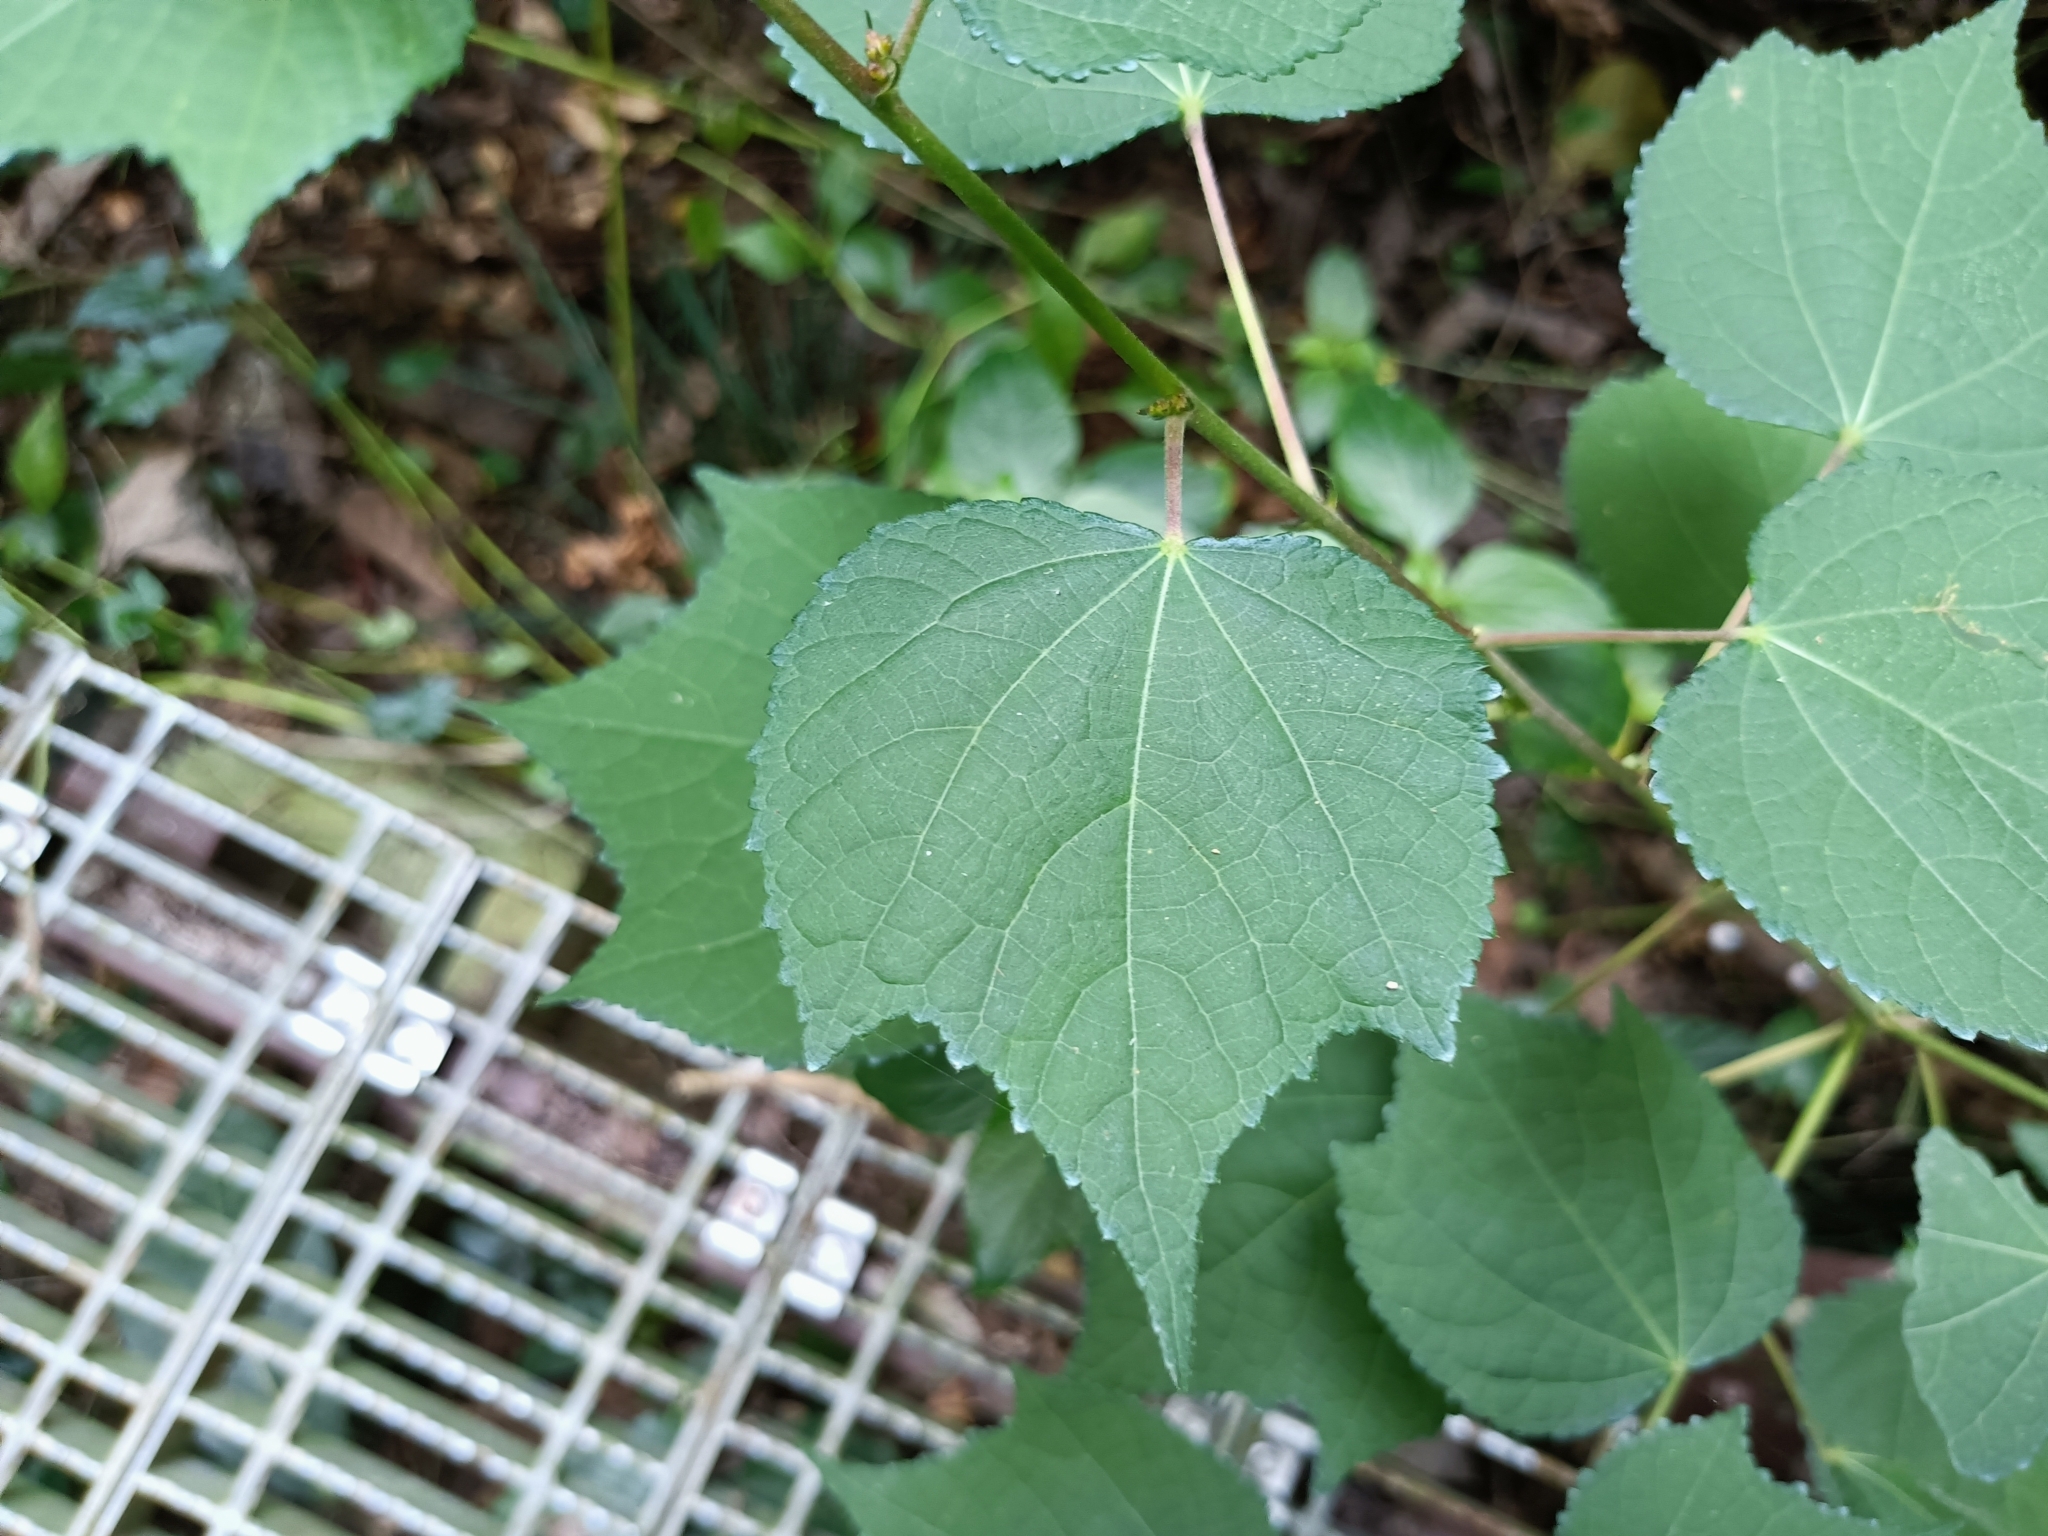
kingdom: Plantae
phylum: Tracheophyta
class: Magnoliopsida
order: Malvales
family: Malvaceae
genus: Triumfetta
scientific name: Triumfetta rhomboidea
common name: Diamond burbark
